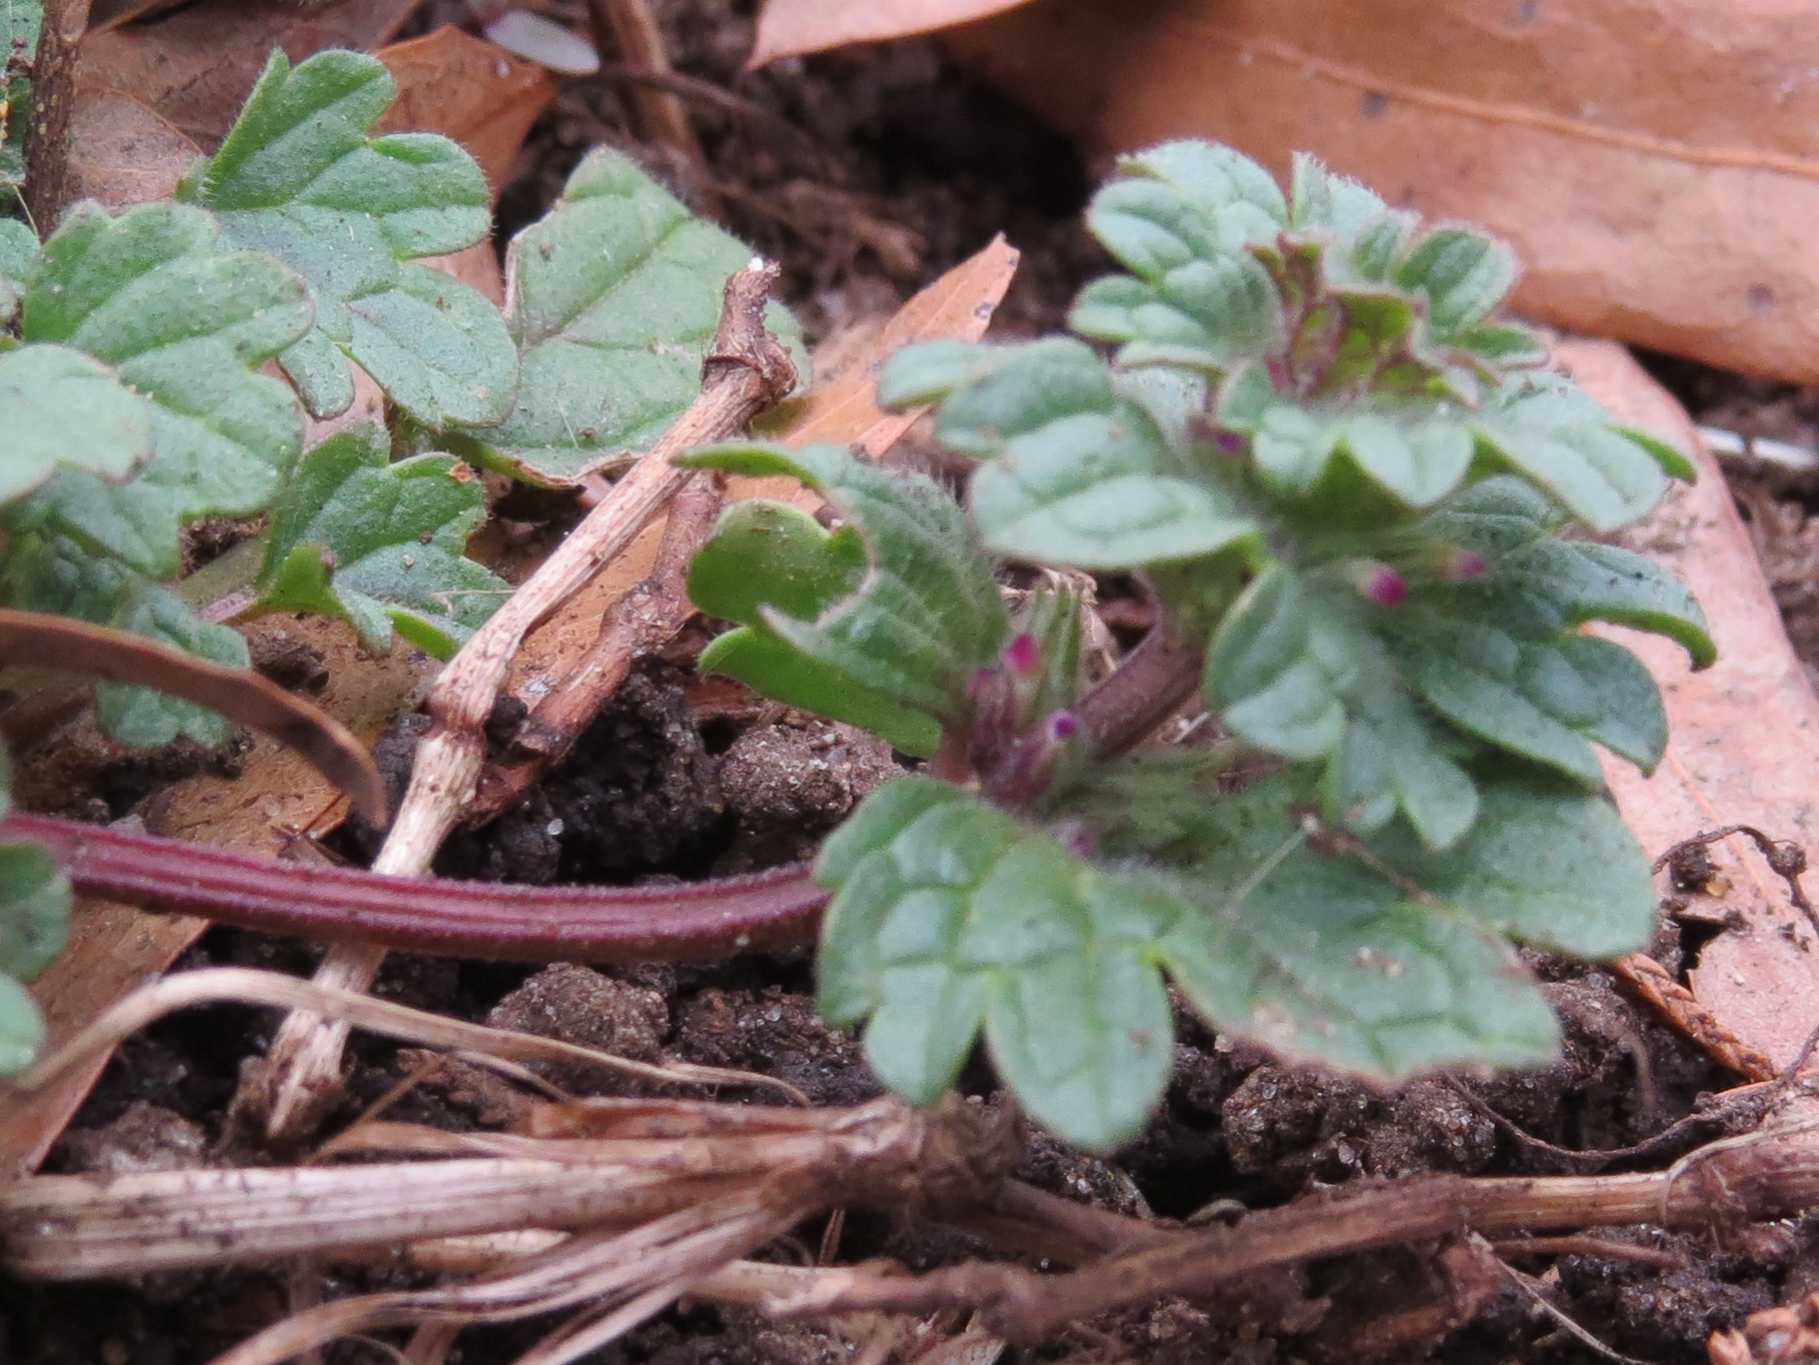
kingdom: Plantae
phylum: Tracheophyta
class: Magnoliopsida
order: Lamiales
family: Lamiaceae
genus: Lamium
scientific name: Lamium amplexicaule
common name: Henbit dead-nettle
